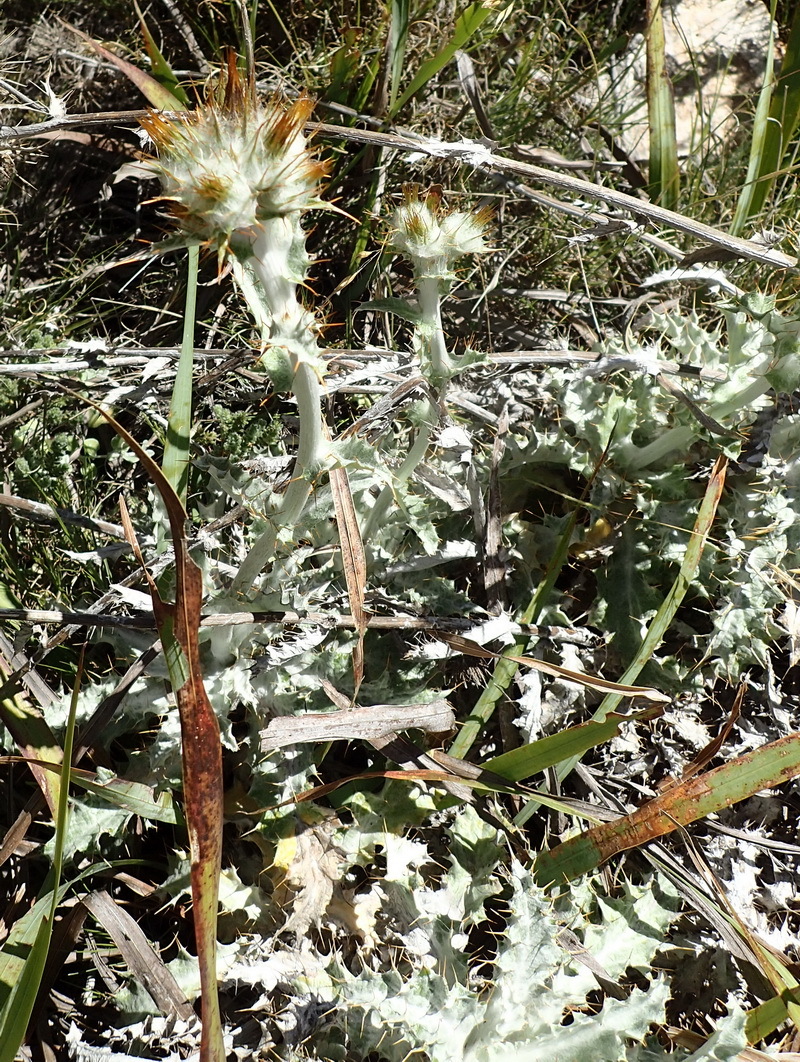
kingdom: Plantae
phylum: Tracheophyta
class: Magnoliopsida
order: Asterales
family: Asteraceae
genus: Berkheya
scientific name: Berkheya francisci
